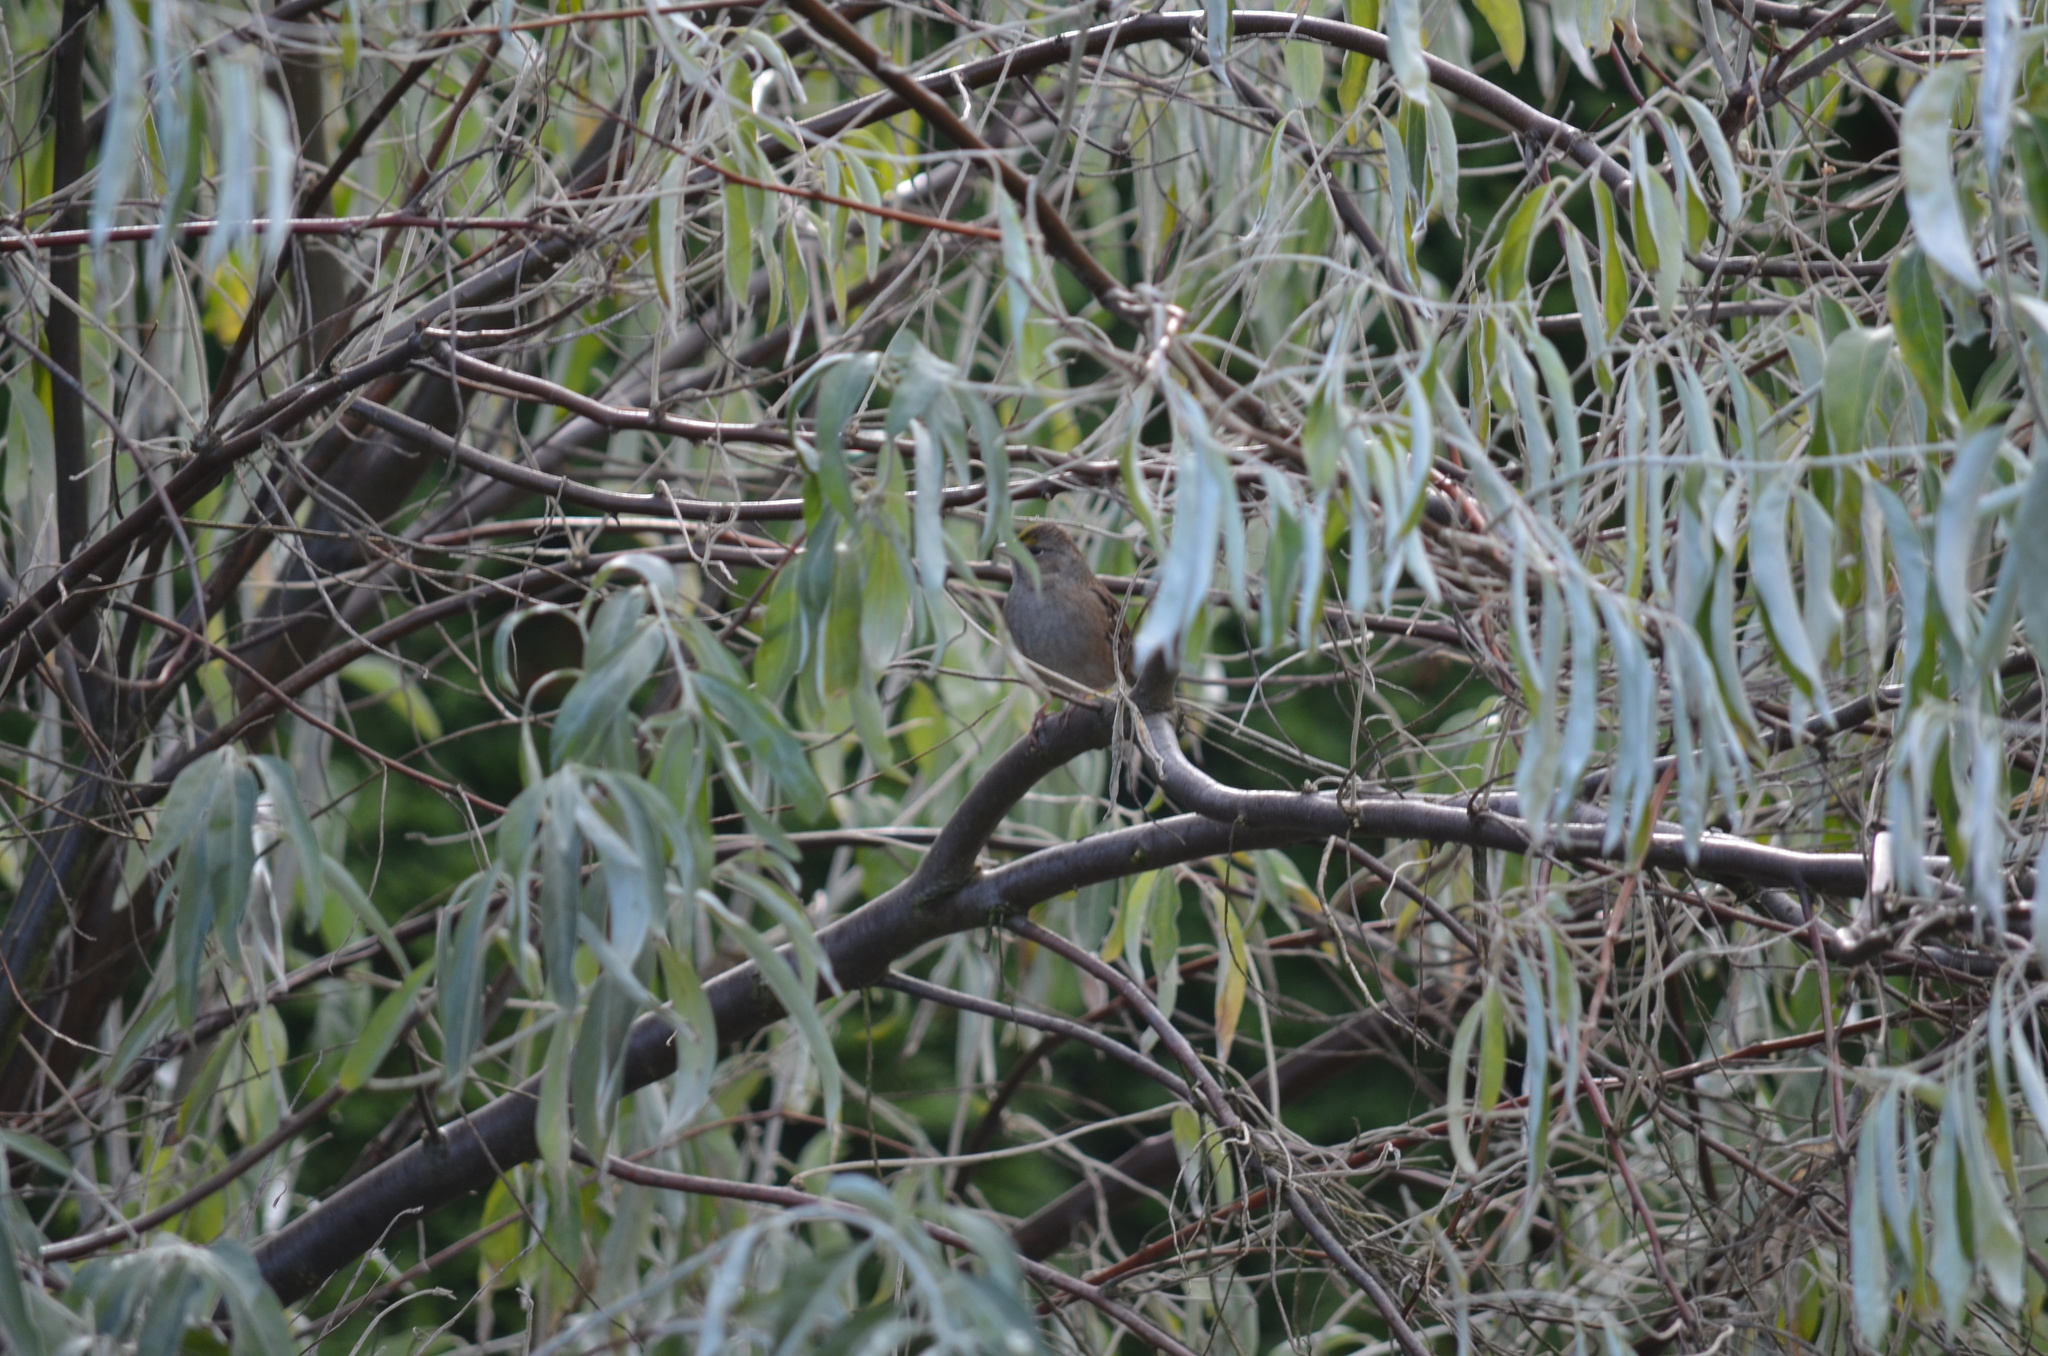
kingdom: Animalia
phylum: Chordata
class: Aves
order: Passeriformes
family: Passerellidae
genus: Zonotrichia
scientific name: Zonotrichia atricapilla
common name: Golden-crowned sparrow
